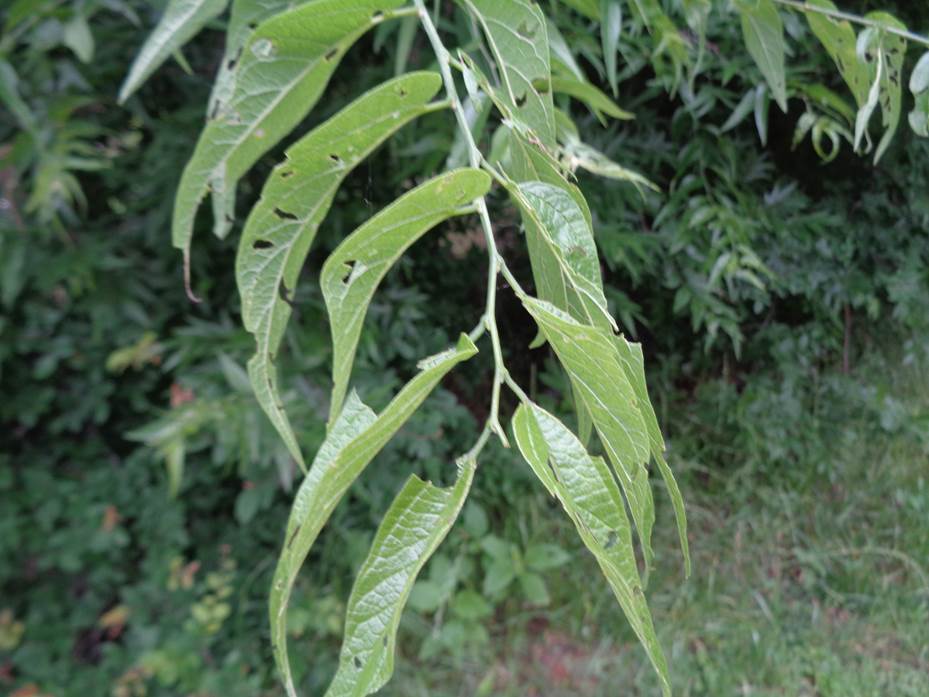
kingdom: Plantae
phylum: Tracheophyta
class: Magnoliopsida
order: Rosales
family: Cannabaceae
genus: Celtis
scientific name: Celtis laevigata
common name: Sugarberry
